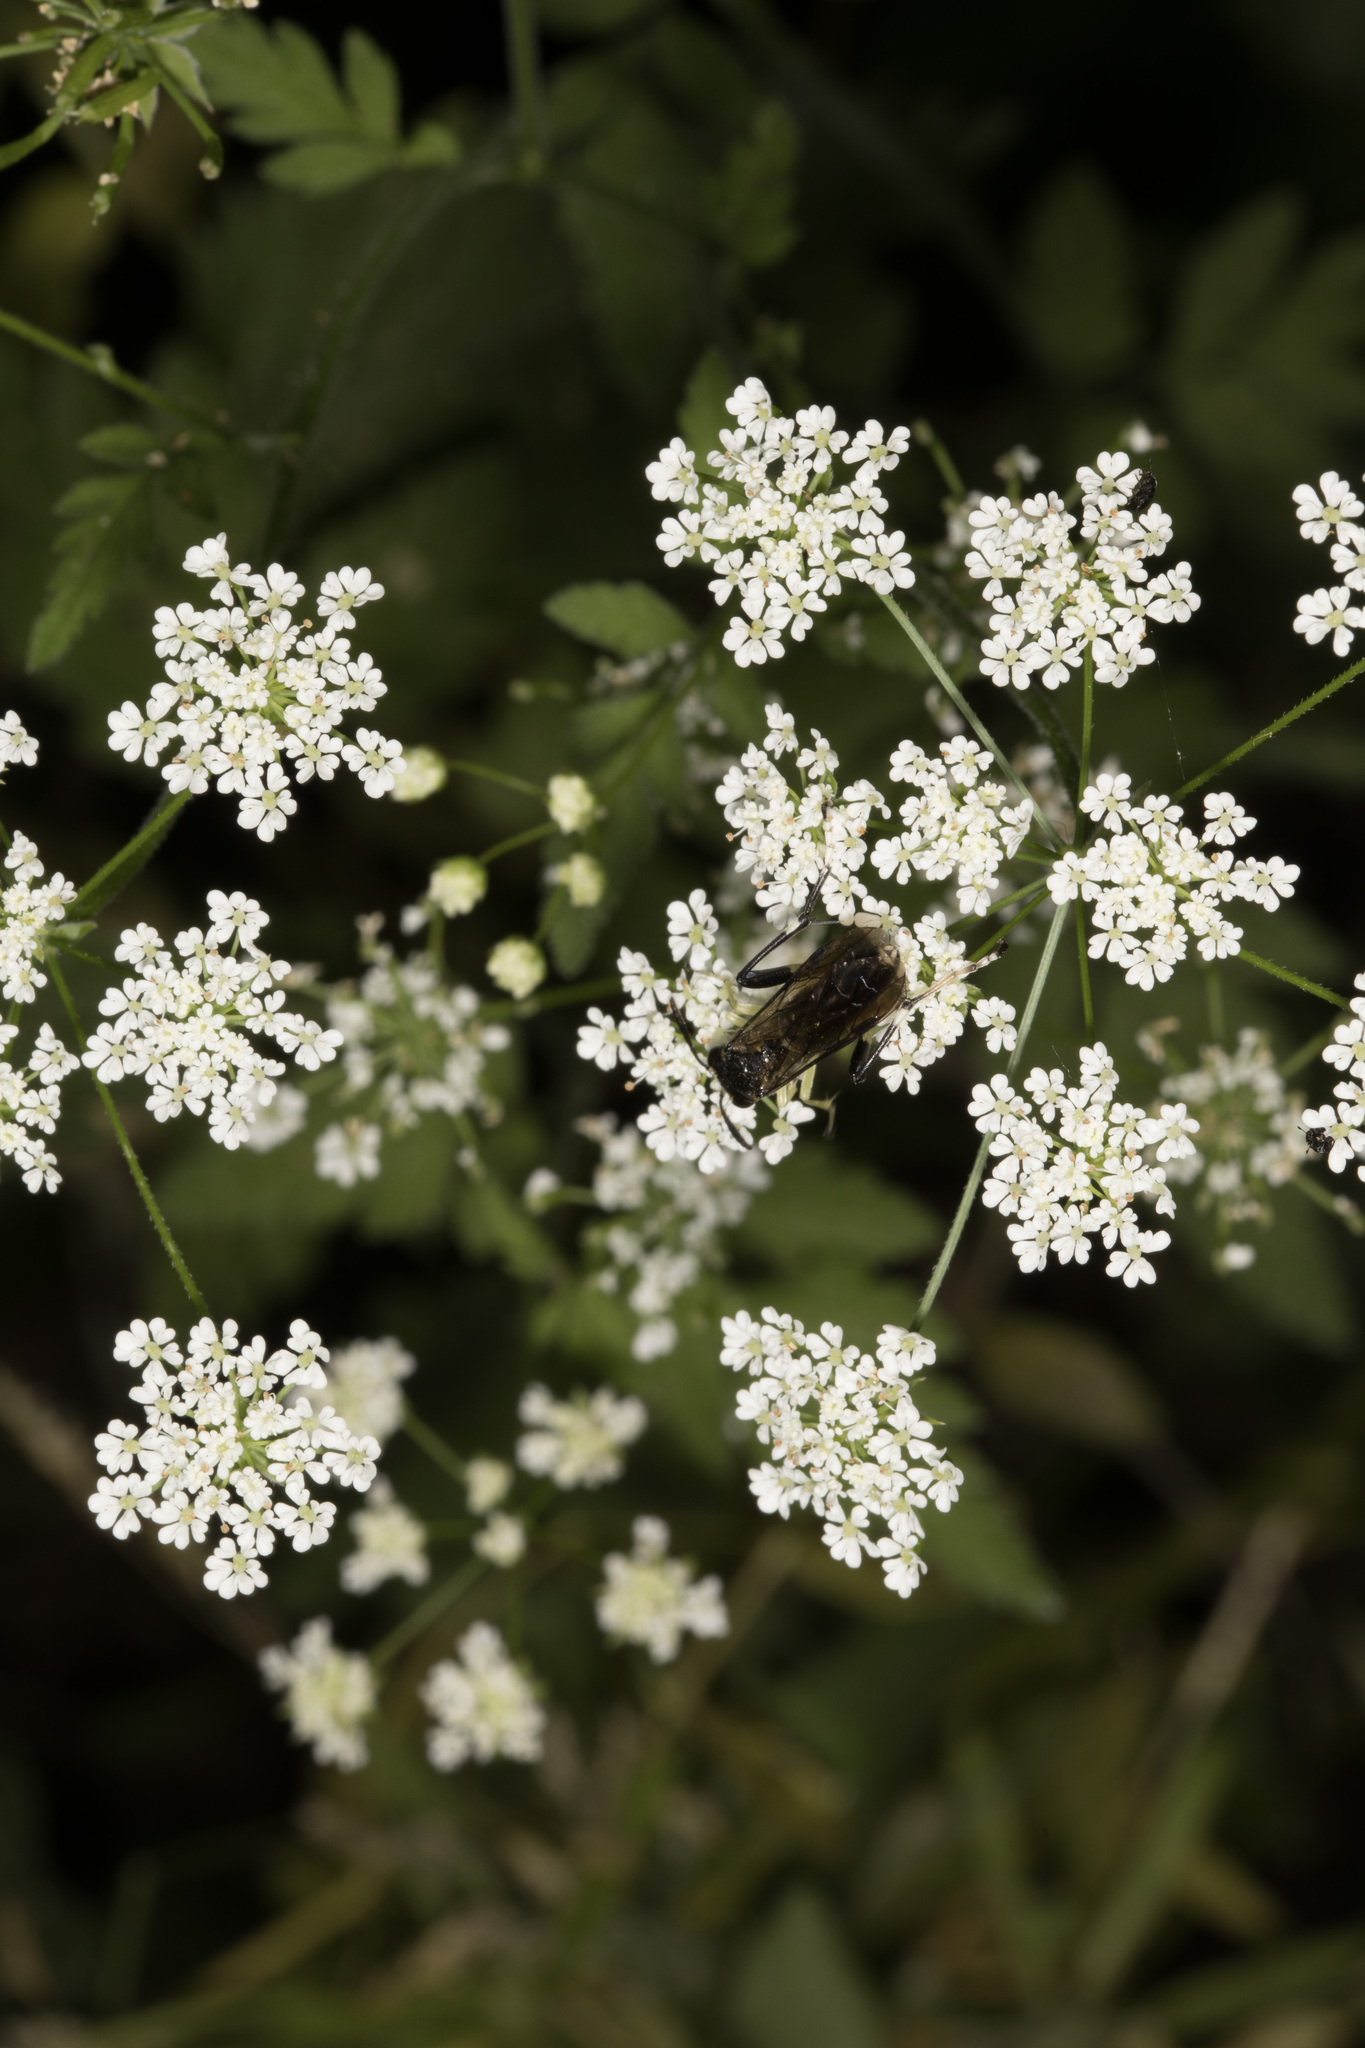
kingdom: Animalia
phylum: Arthropoda
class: Insecta
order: Hymenoptera
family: Tenthredinidae
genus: Macrophya
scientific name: Macrophya montana
